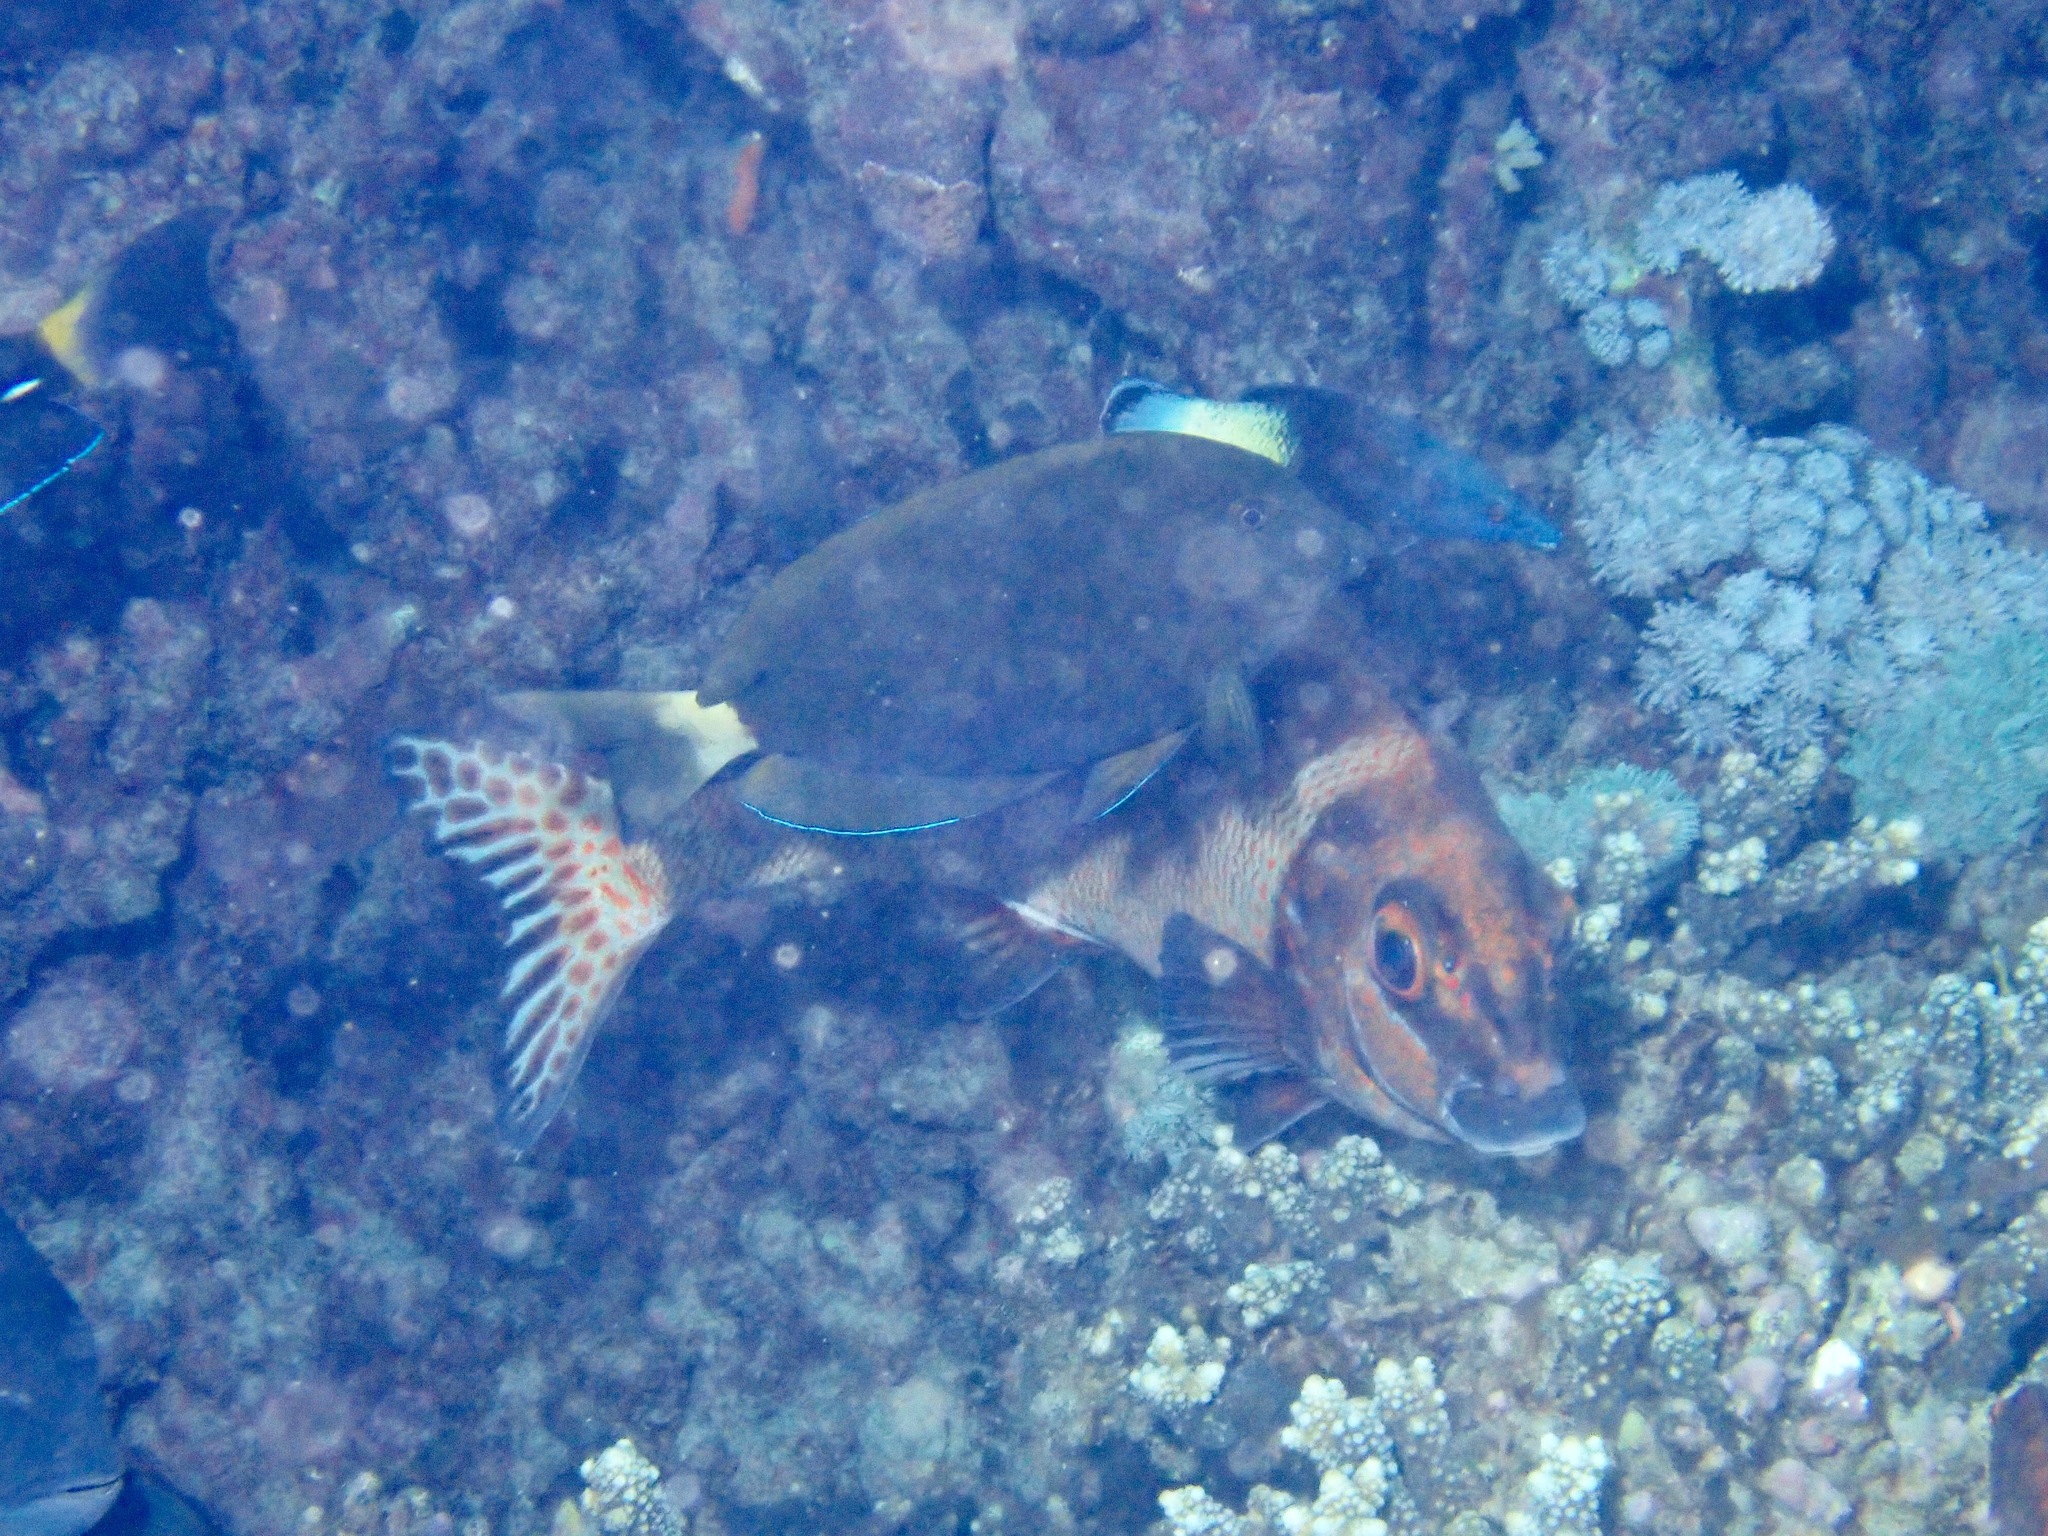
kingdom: Animalia
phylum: Chordata
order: Perciformes
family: Labridae
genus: Labroides
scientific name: Labroides bicolor
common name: Bicolor cleaner wrasse
